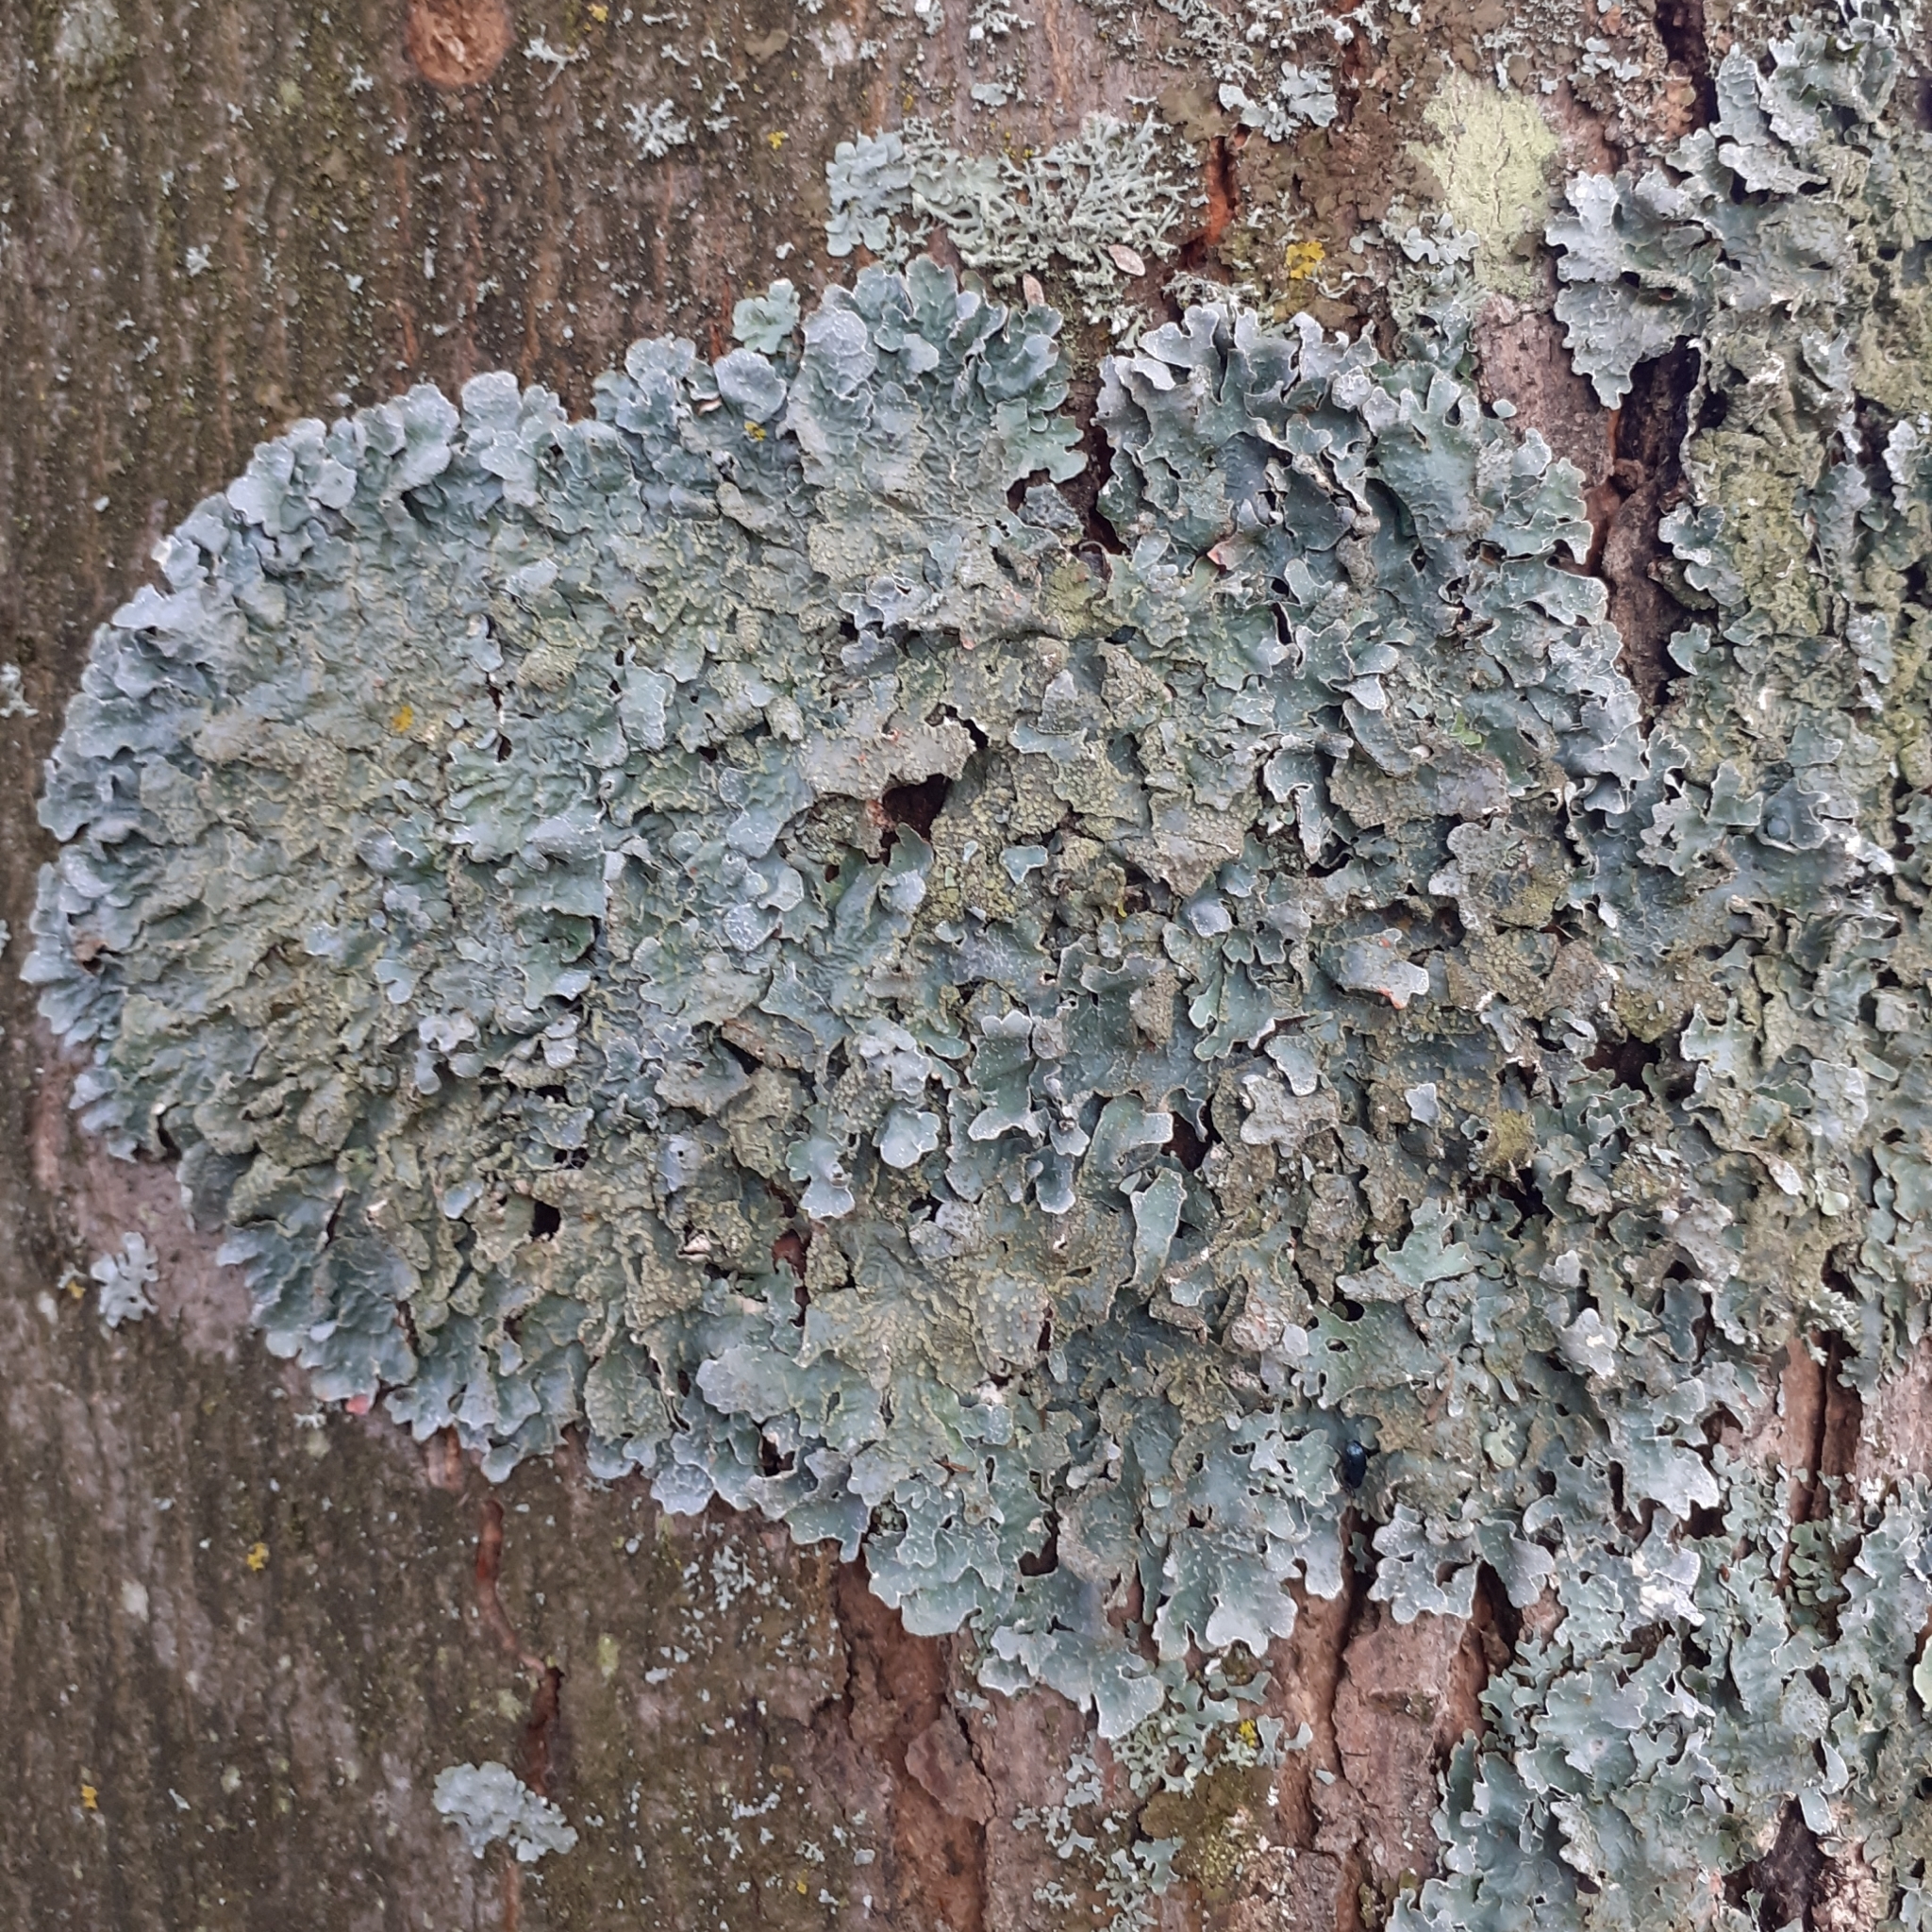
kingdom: Fungi
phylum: Ascomycota
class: Lecanoromycetes
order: Lecanorales
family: Parmeliaceae
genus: Parmelia
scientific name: Parmelia sulcata
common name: Netted shield lichen
